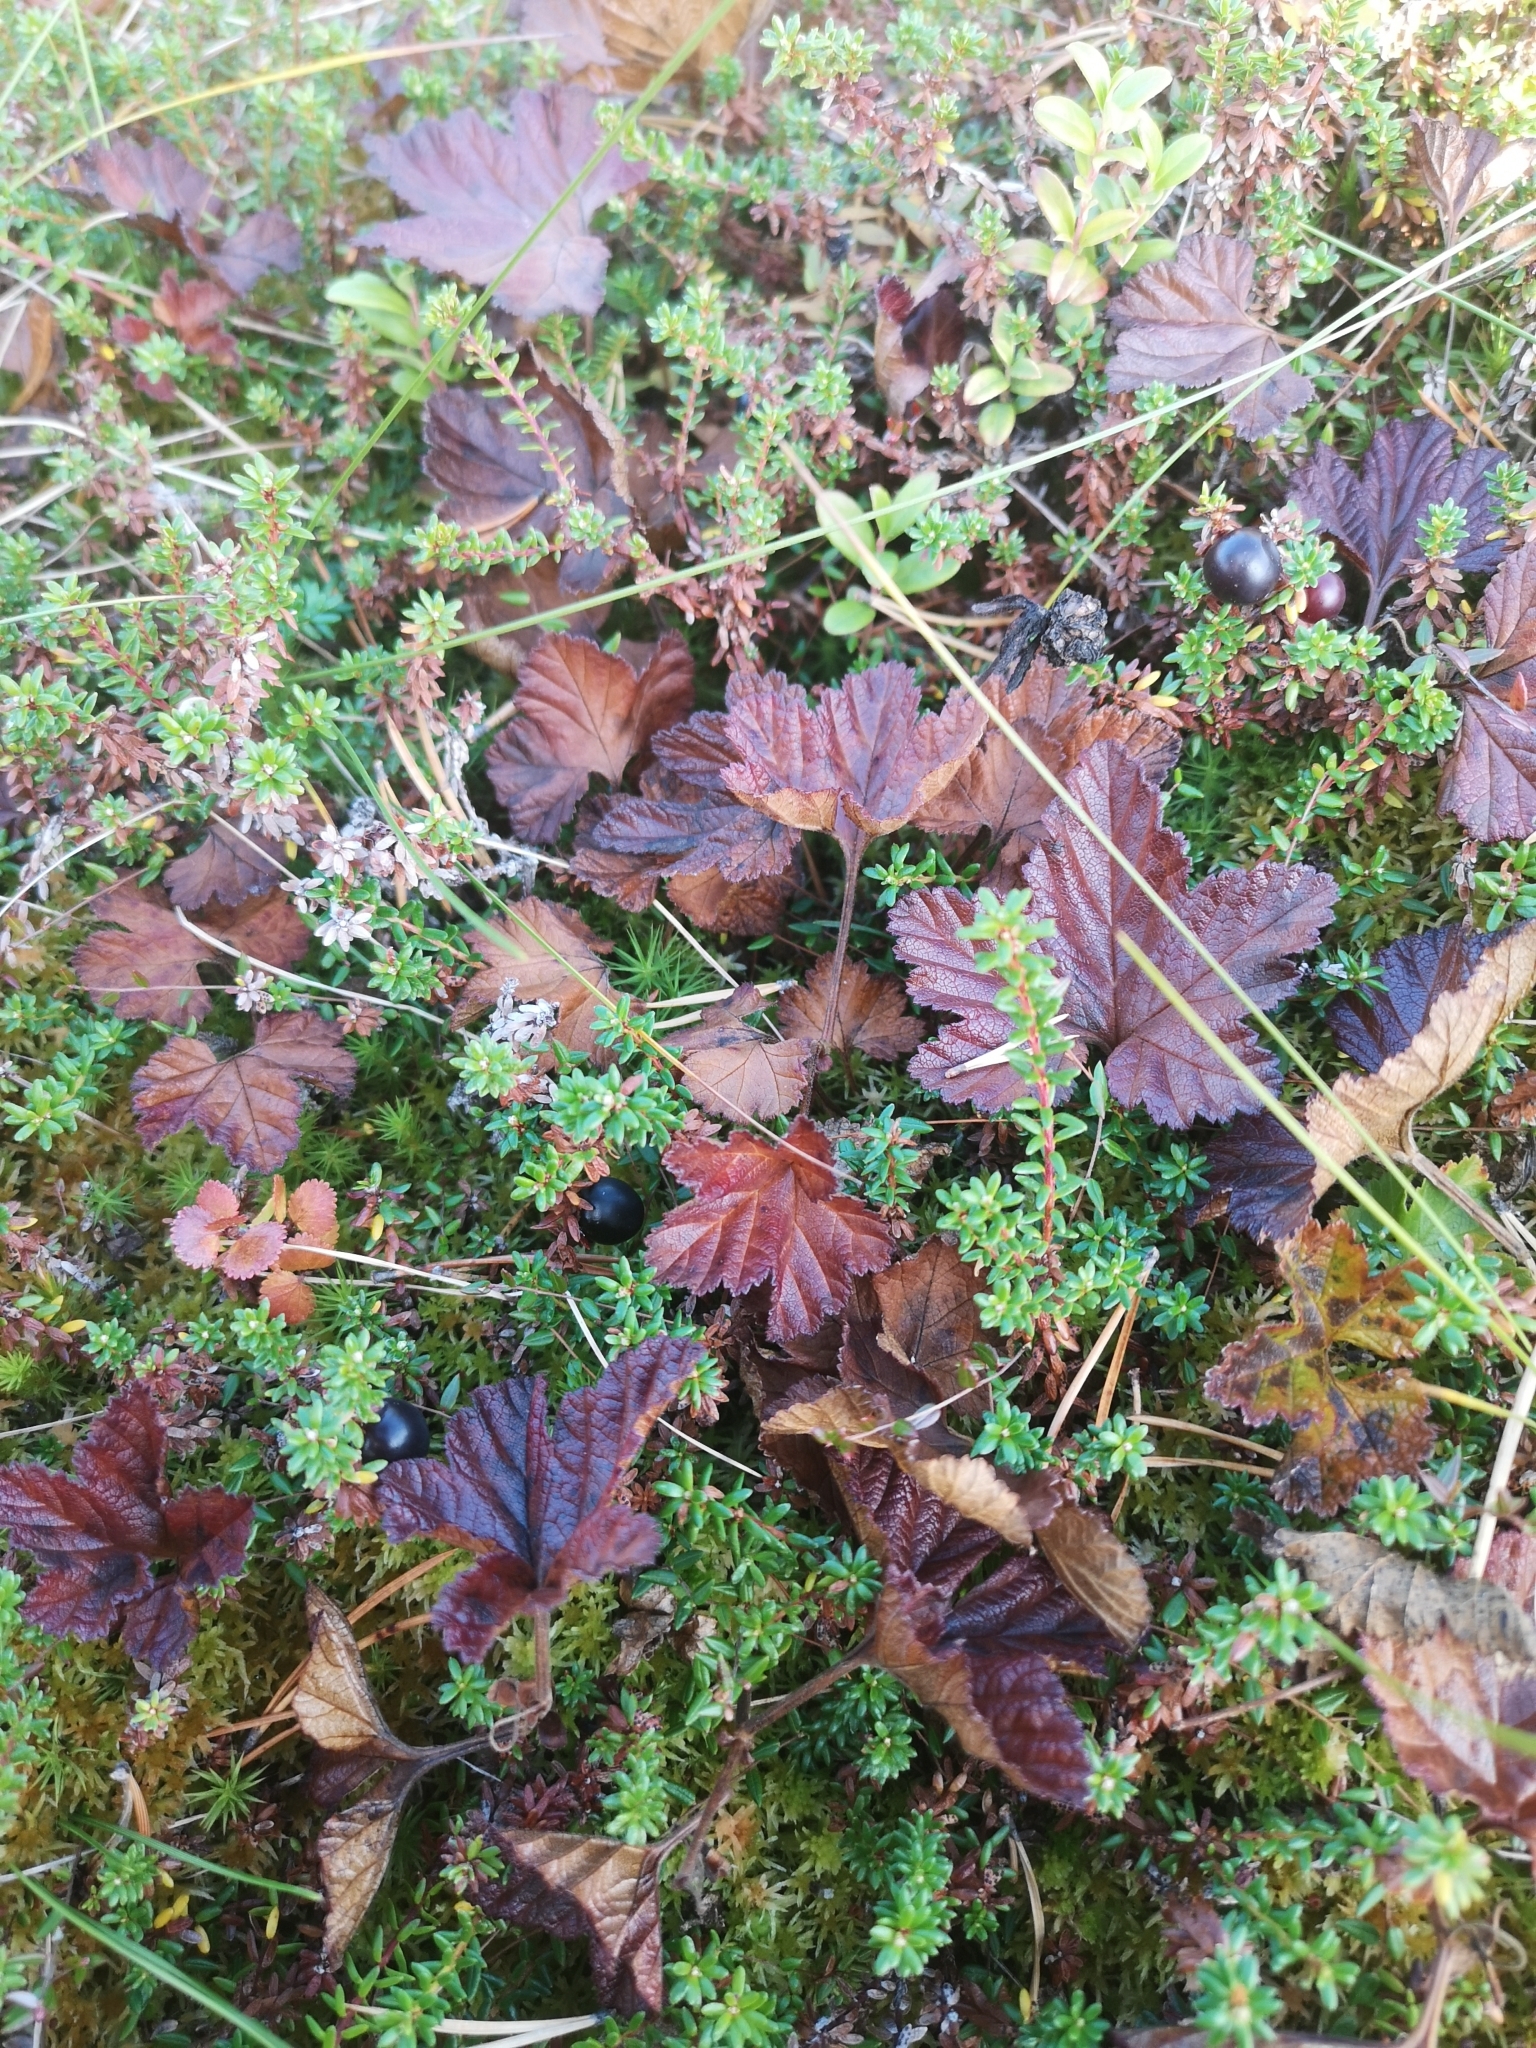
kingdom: Plantae
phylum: Tracheophyta
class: Magnoliopsida
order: Rosales
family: Rosaceae
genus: Rubus
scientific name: Rubus chamaemorus
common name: Cloudberry
